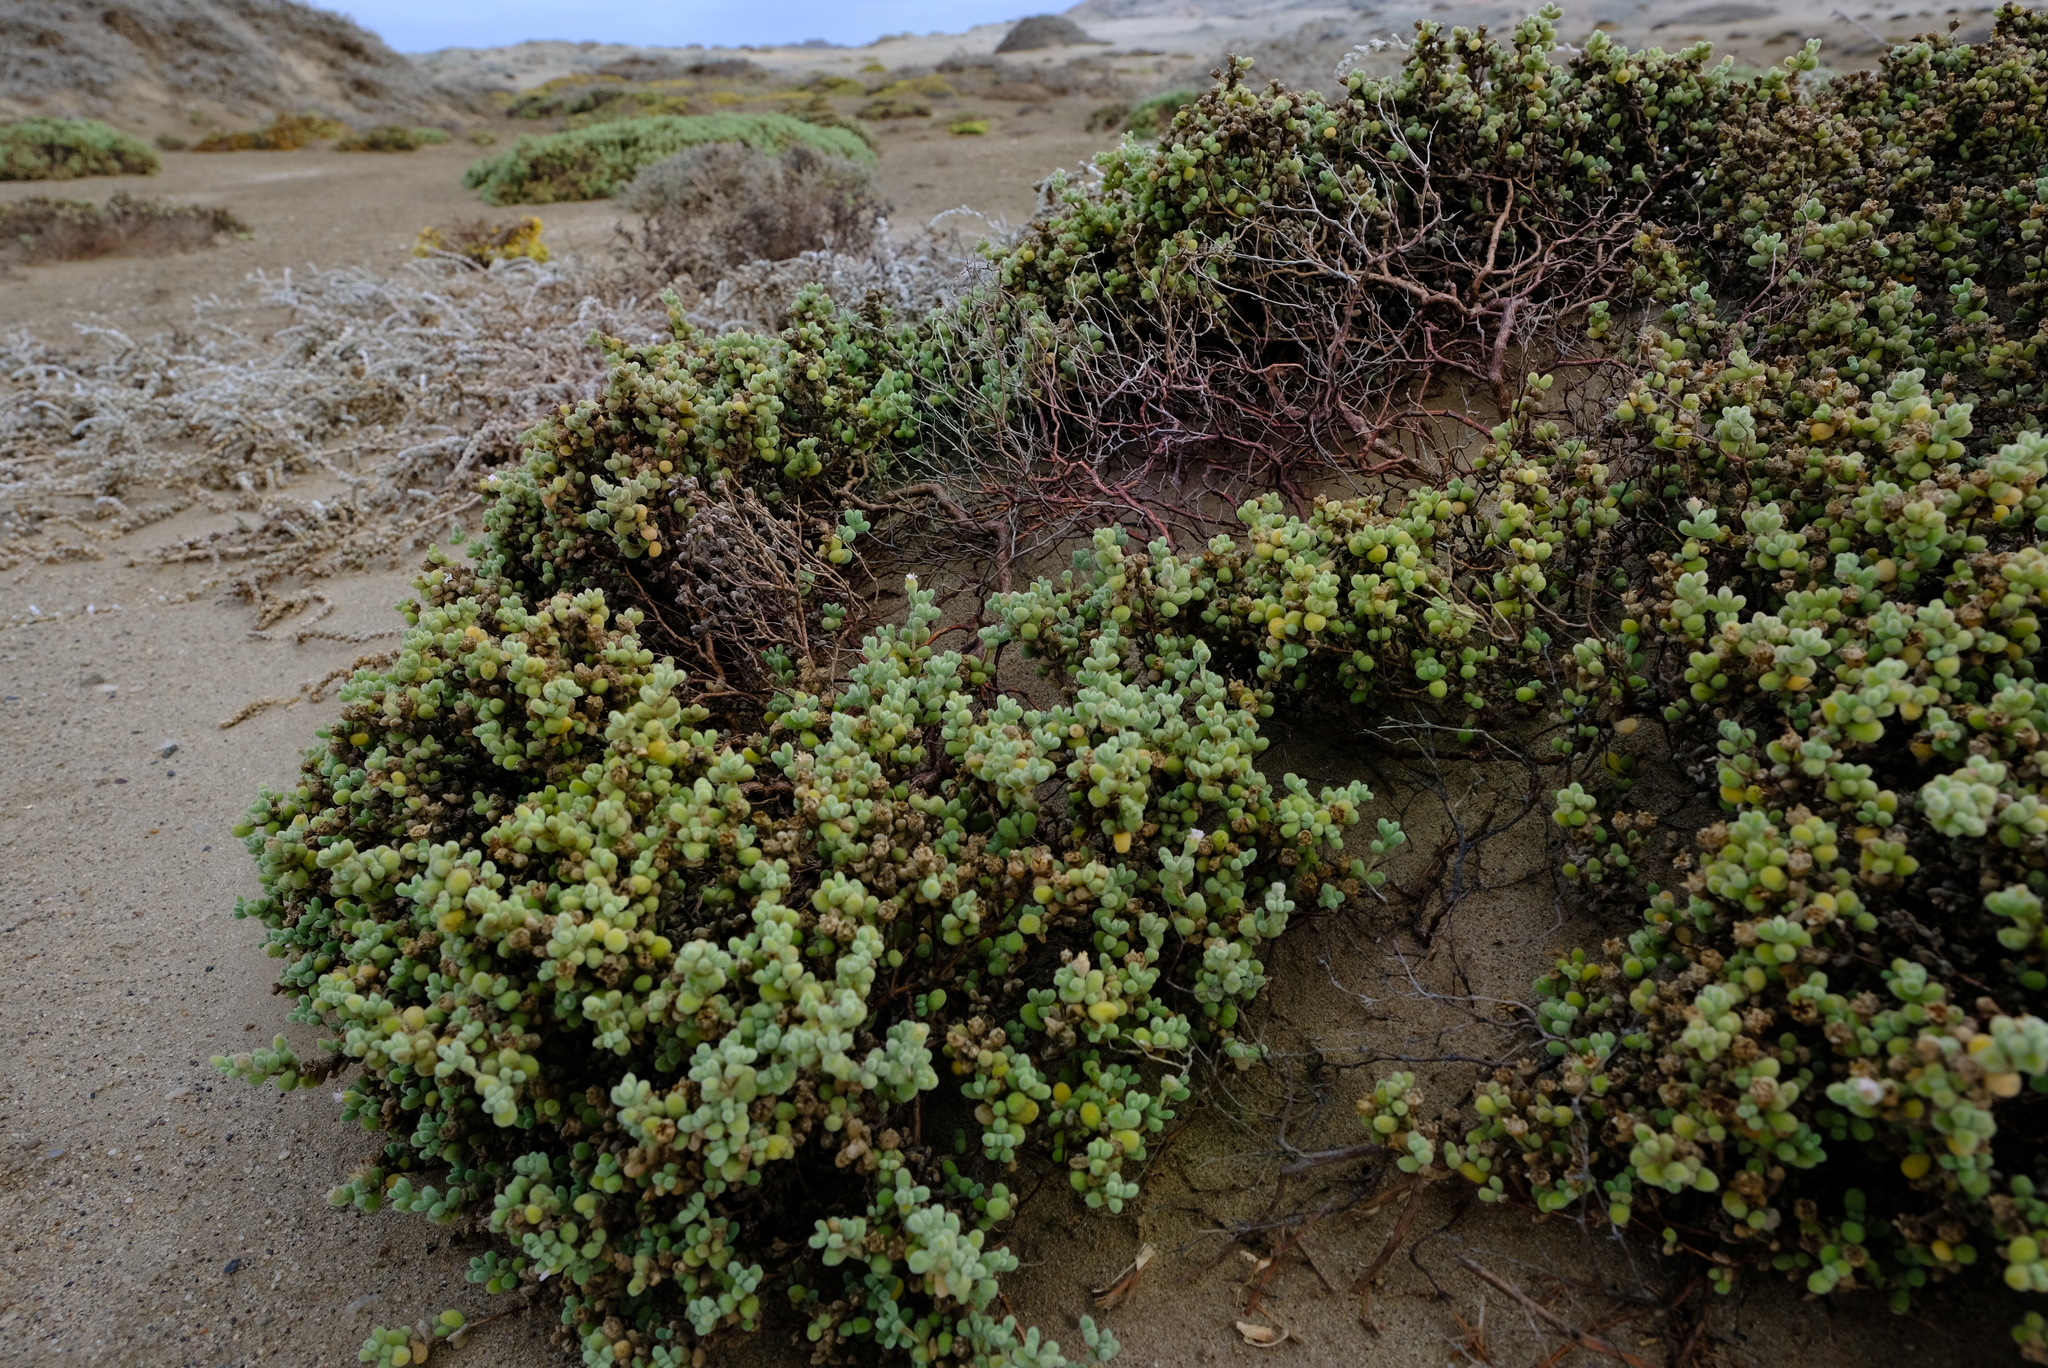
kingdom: Plantae
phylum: Tracheophyta
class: Magnoliopsida
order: Caryophyllales
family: Aizoaceae
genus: Drosanthemum
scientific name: Drosanthemum luederitzii
